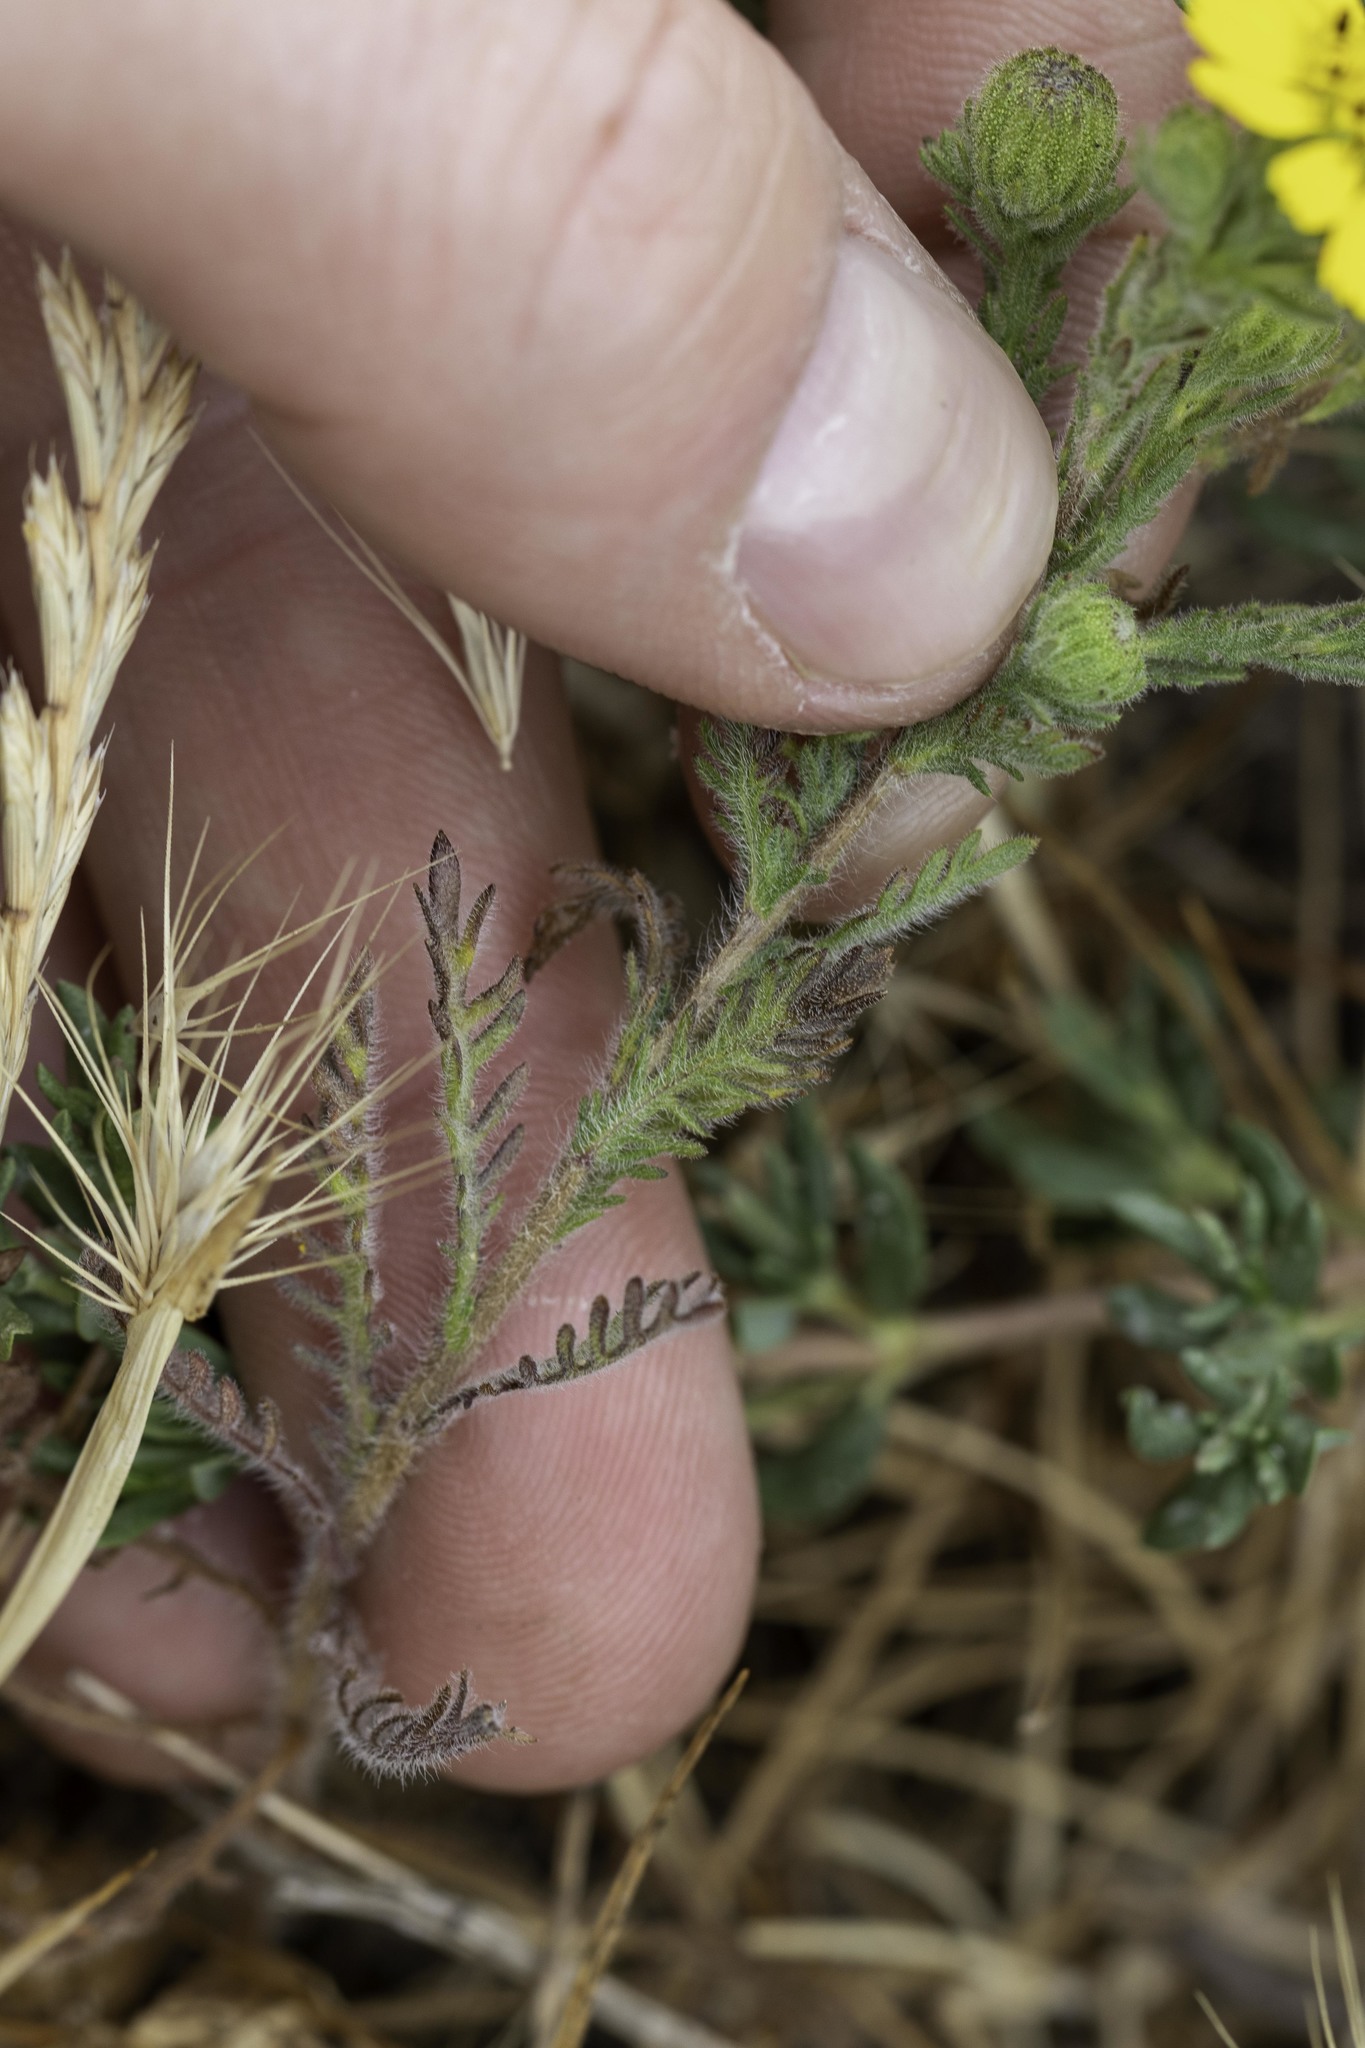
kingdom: Plantae
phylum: Tracheophyta
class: Magnoliopsida
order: Asterales
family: Asteraceae
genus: Deinandra
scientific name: Deinandra increscens
